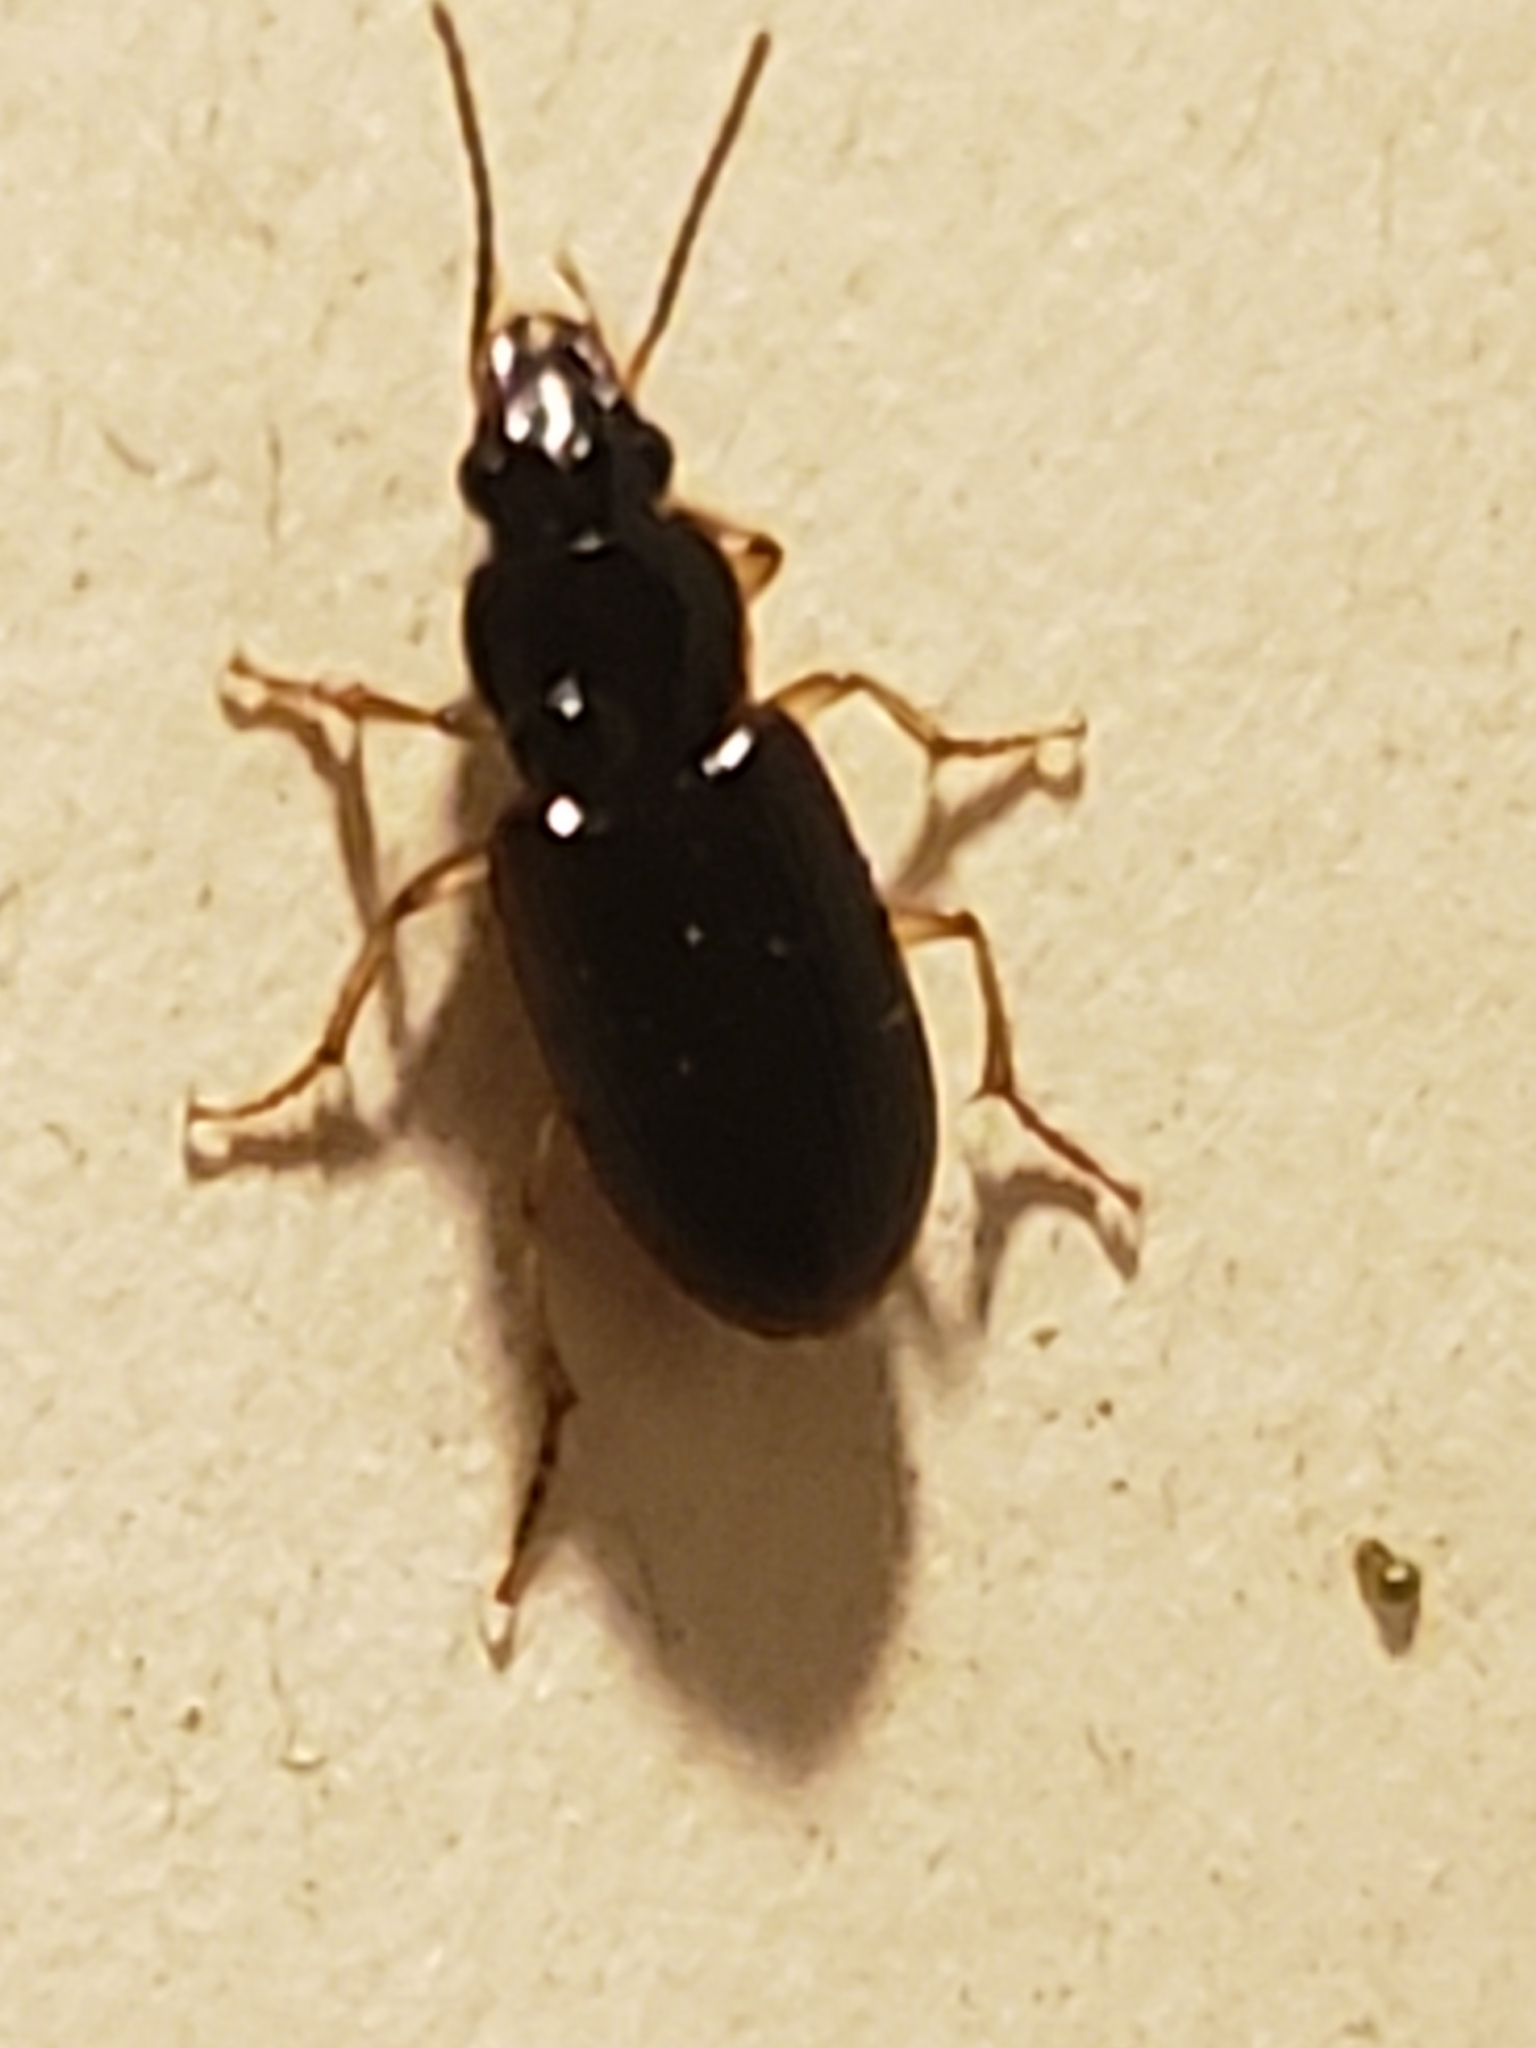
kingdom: Animalia
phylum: Arthropoda
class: Insecta
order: Coleoptera
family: Carabidae
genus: Stenolophus
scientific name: Stenolophus ochropezus
